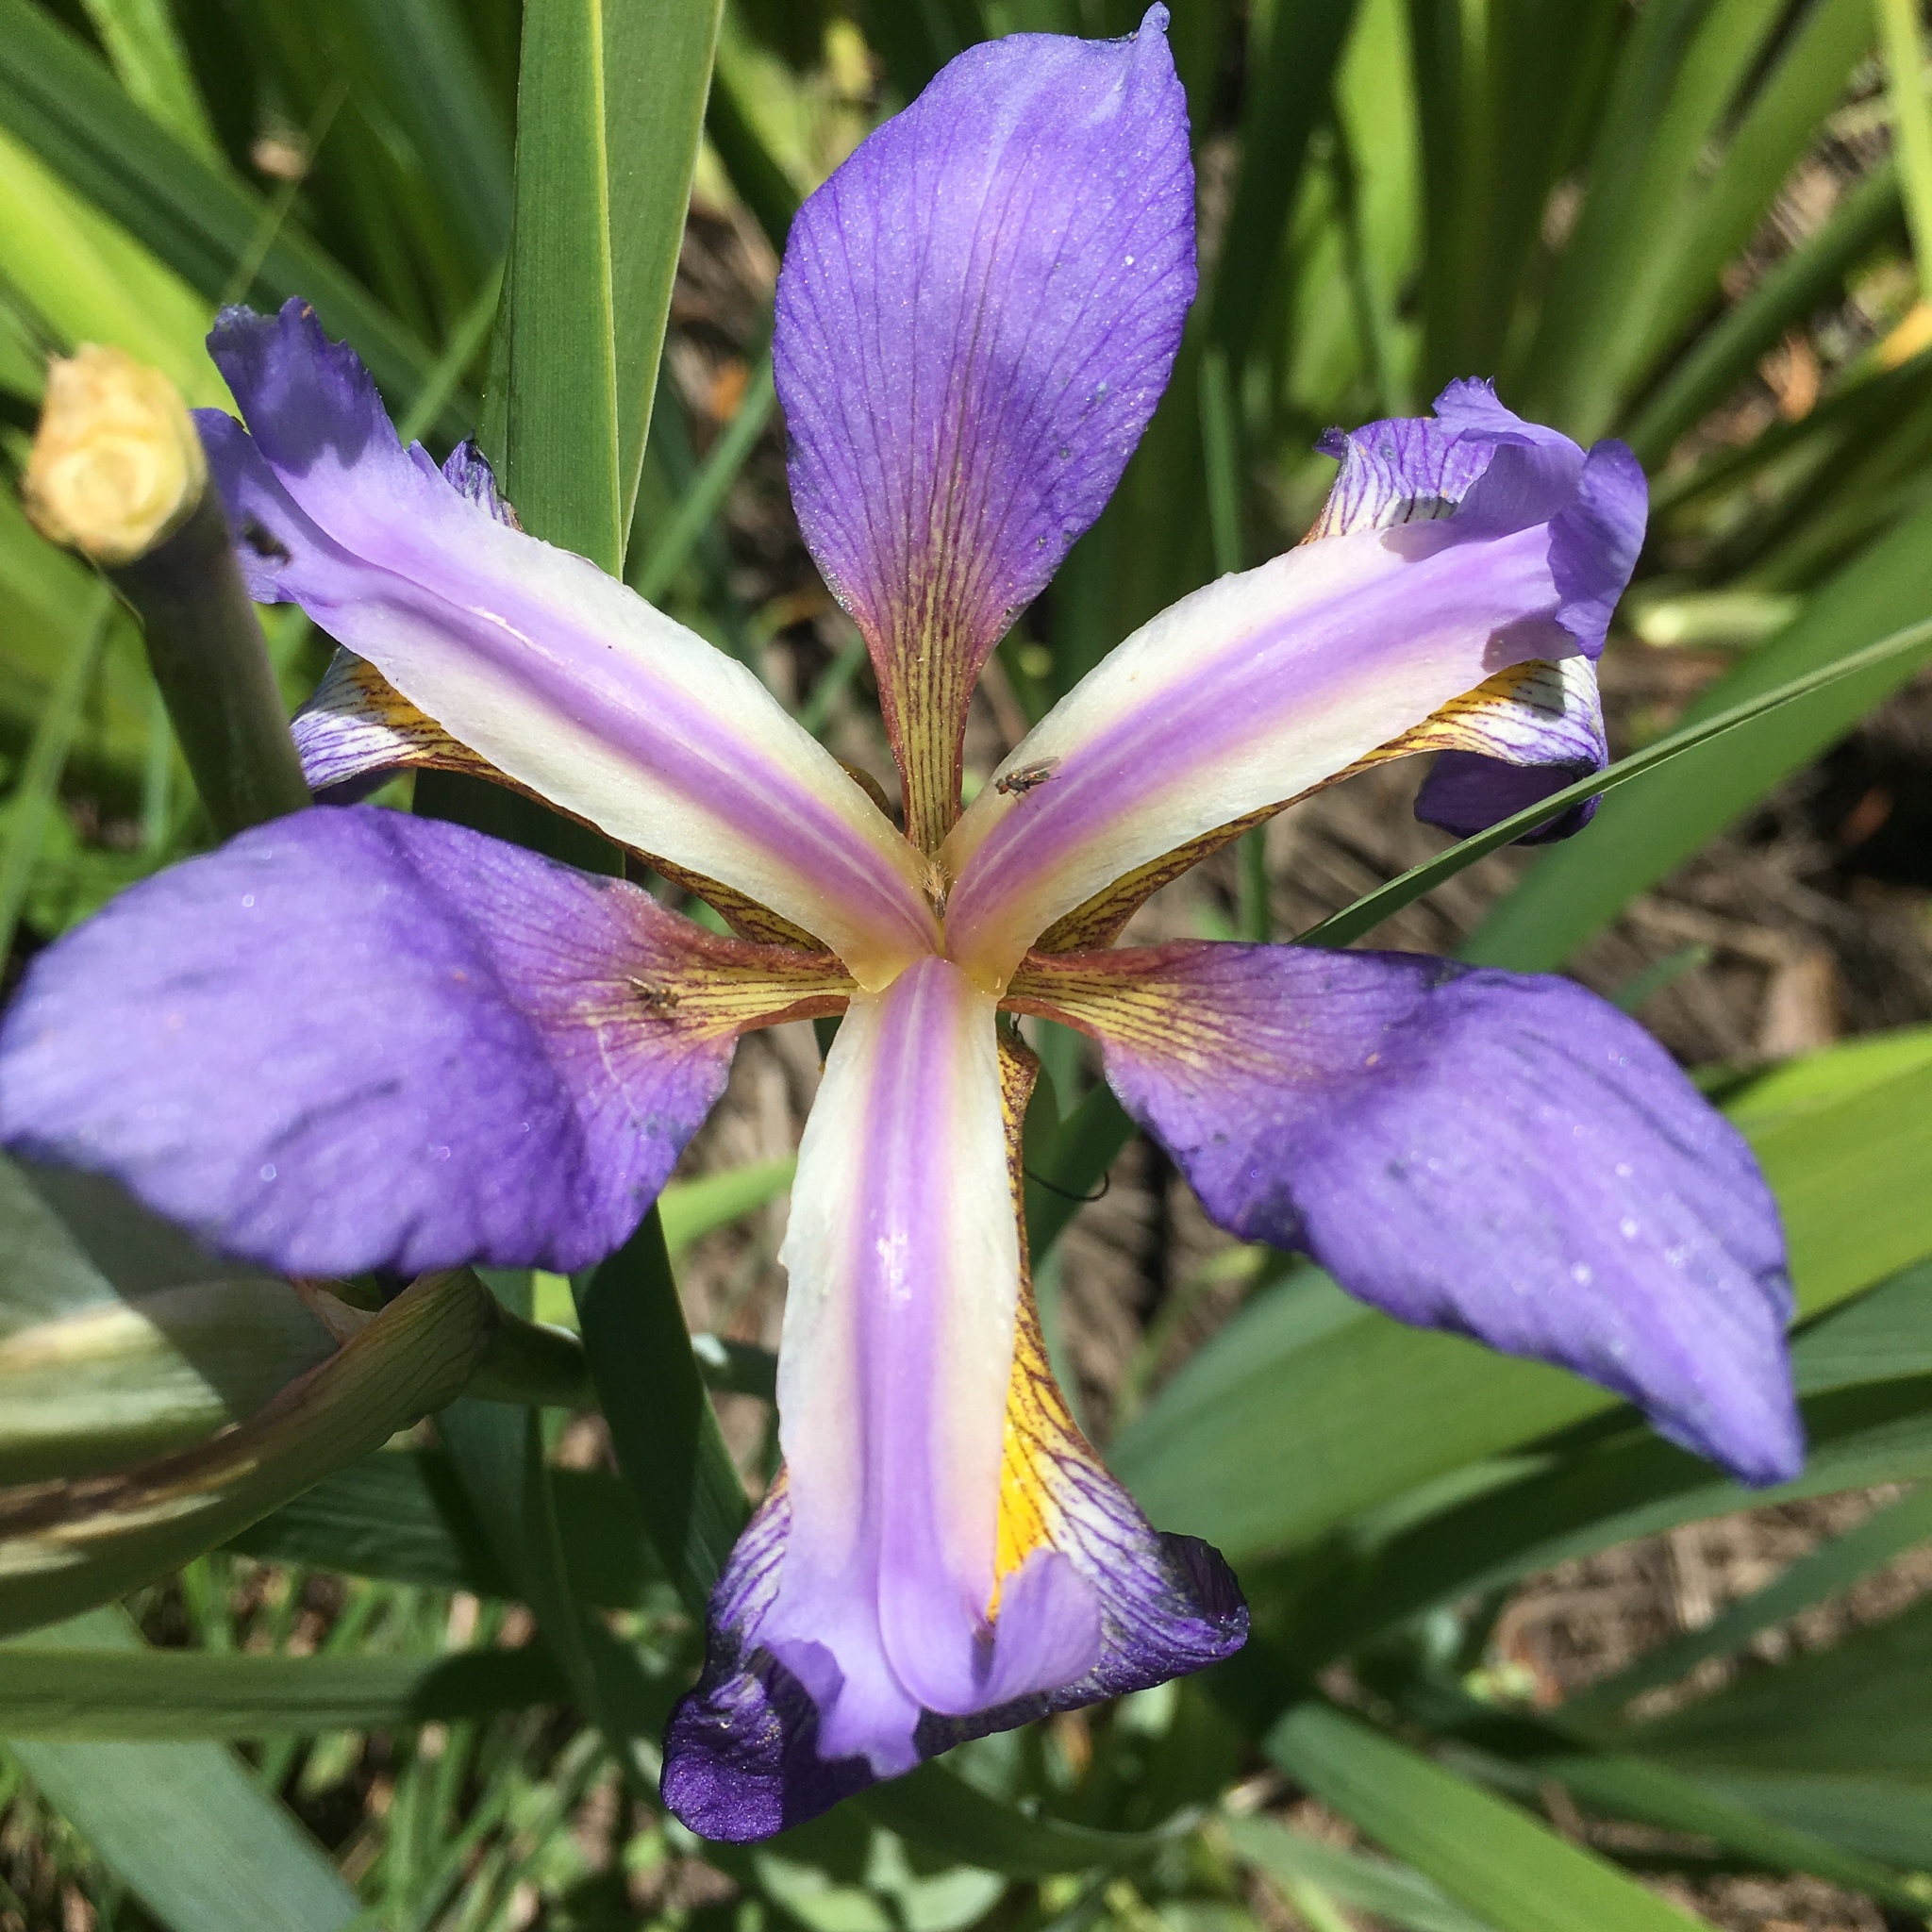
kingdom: Plantae
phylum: Tracheophyta
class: Liliopsida
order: Asparagales
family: Iridaceae
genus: Iris
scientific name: Iris virginica
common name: Southern blue flag
